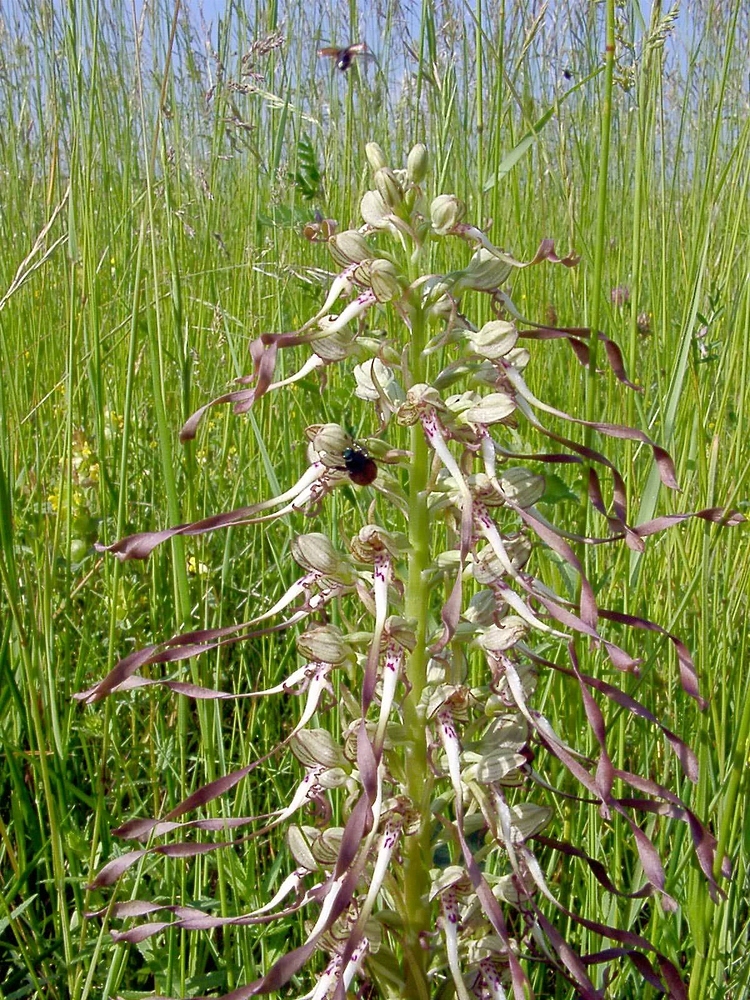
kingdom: Plantae
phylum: Tracheophyta
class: Liliopsida
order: Asparagales
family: Orchidaceae
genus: Himantoglossum
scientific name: Himantoglossum hircinum
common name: Lizard orchid
